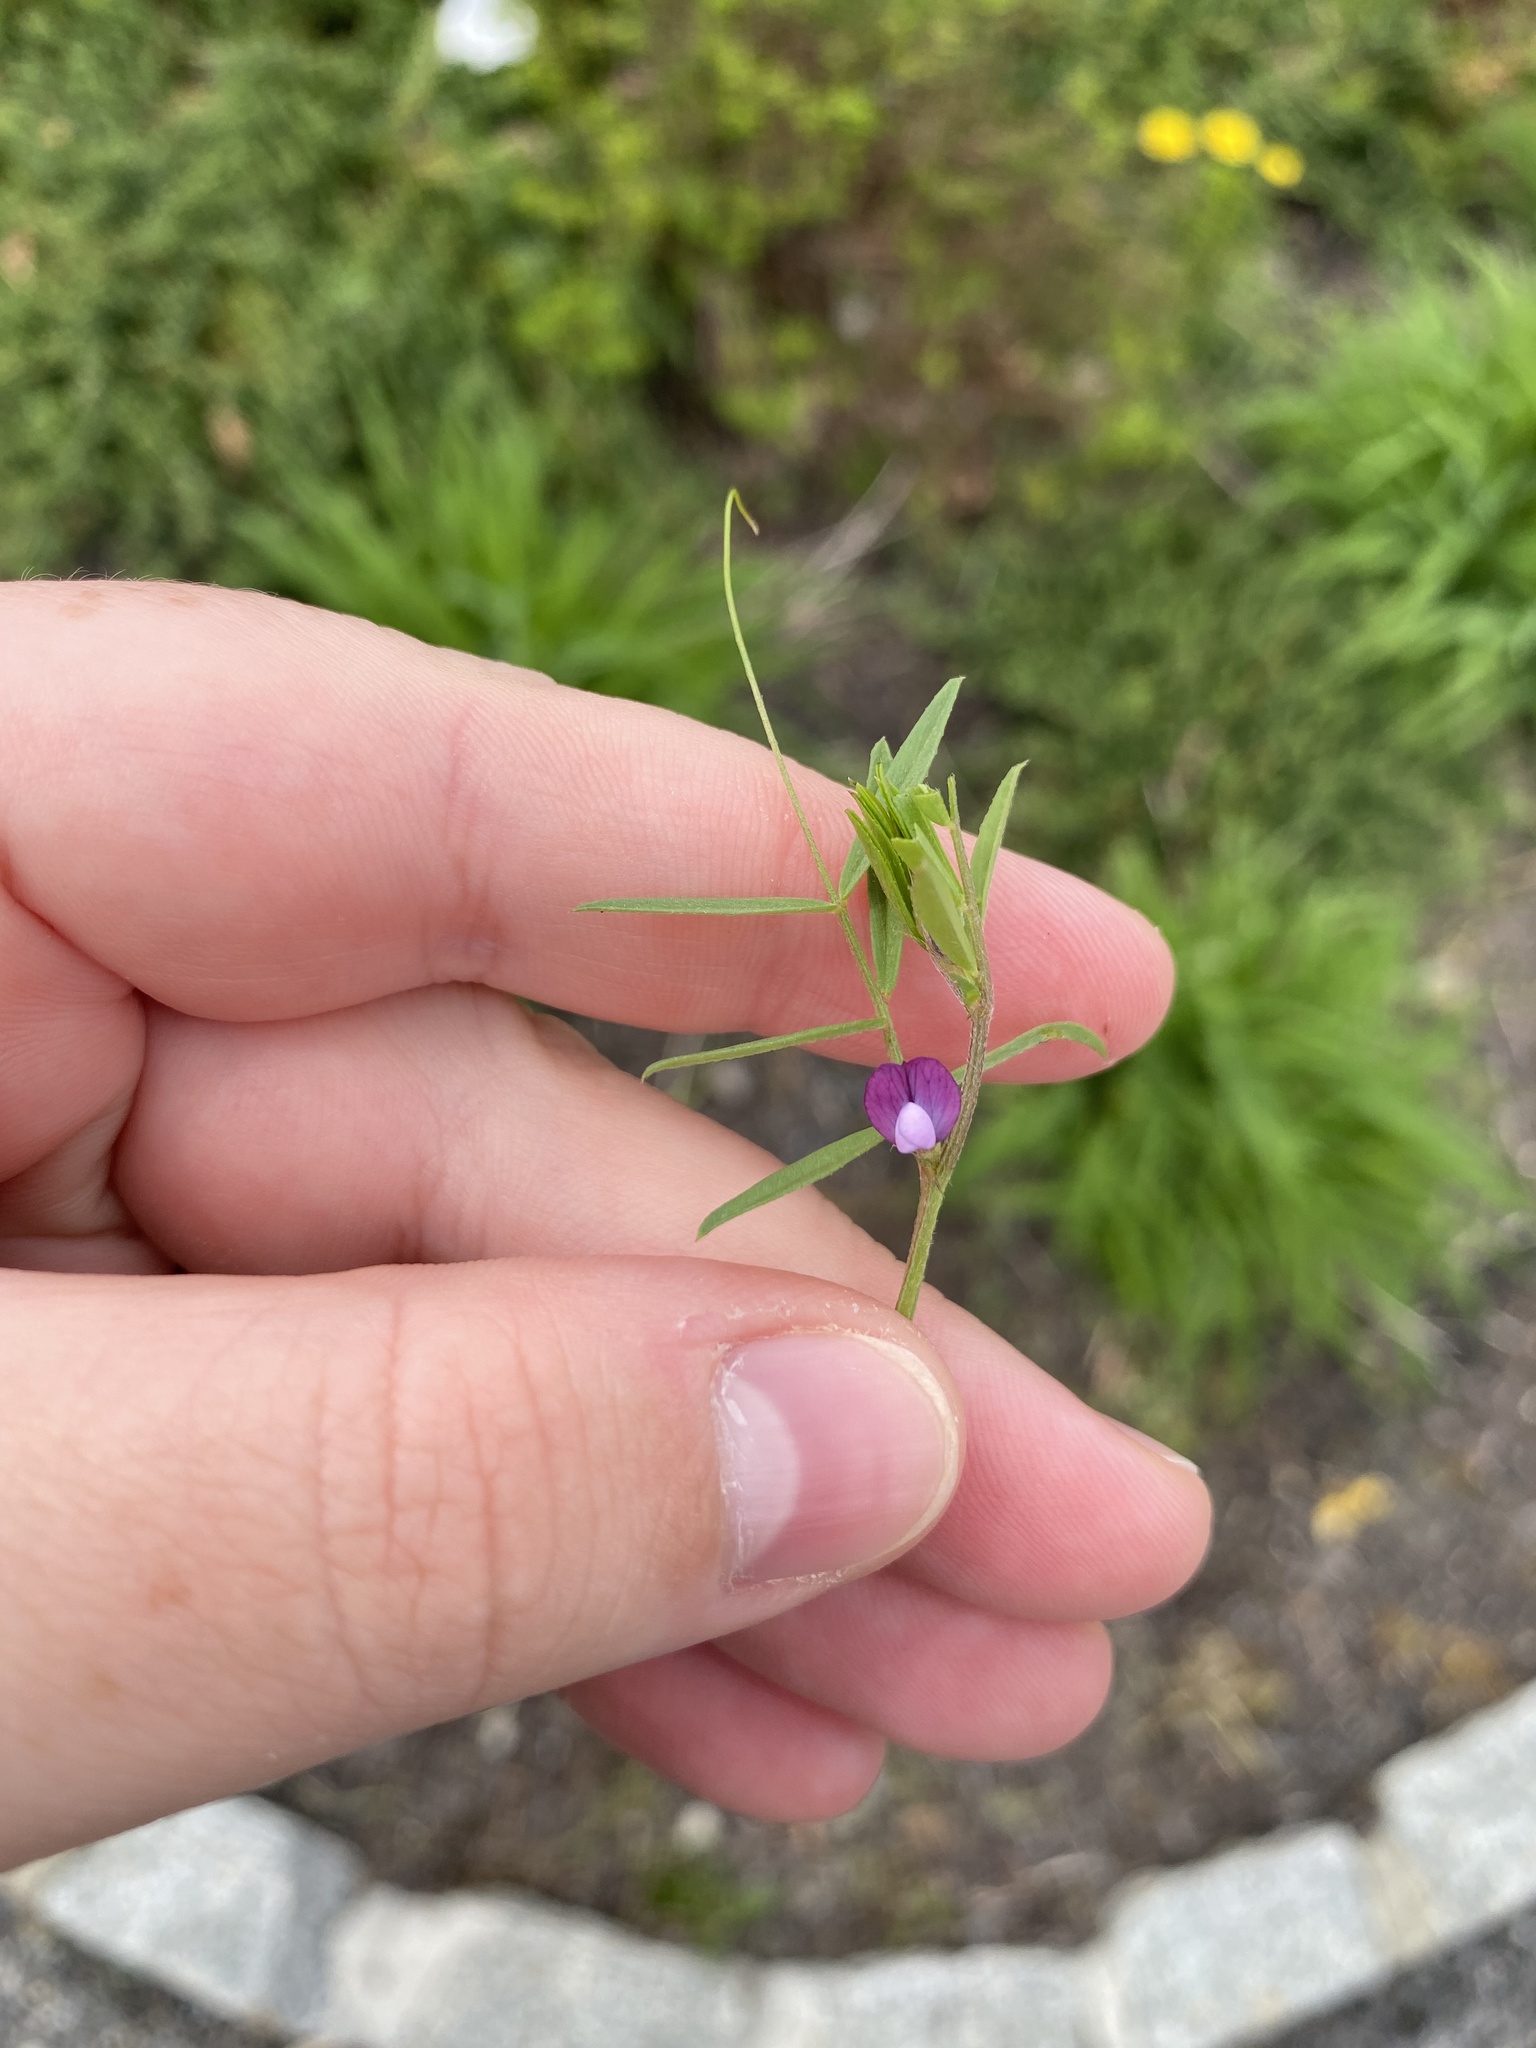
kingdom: Plantae
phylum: Tracheophyta
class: Magnoliopsida
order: Fabales
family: Fabaceae
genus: Vicia
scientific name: Vicia lathyroides
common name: Spring vetch
